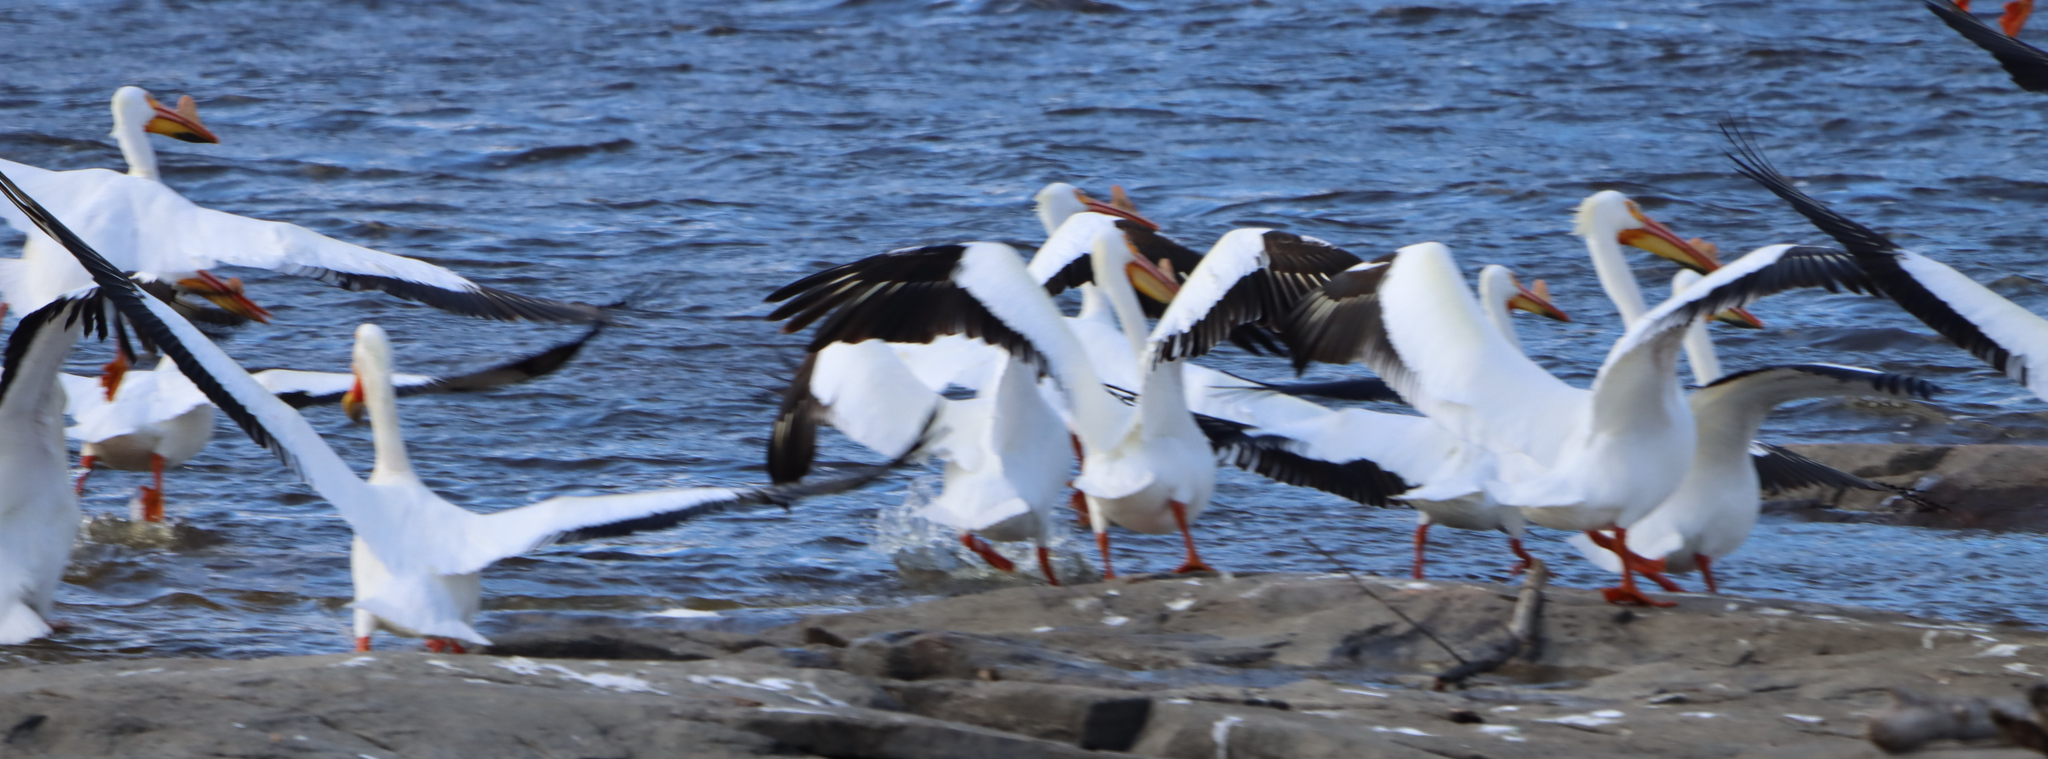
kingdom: Animalia
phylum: Chordata
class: Aves
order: Pelecaniformes
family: Pelecanidae
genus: Pelecanus
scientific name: Pelecanus erythrorhynchos
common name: American white pelican
